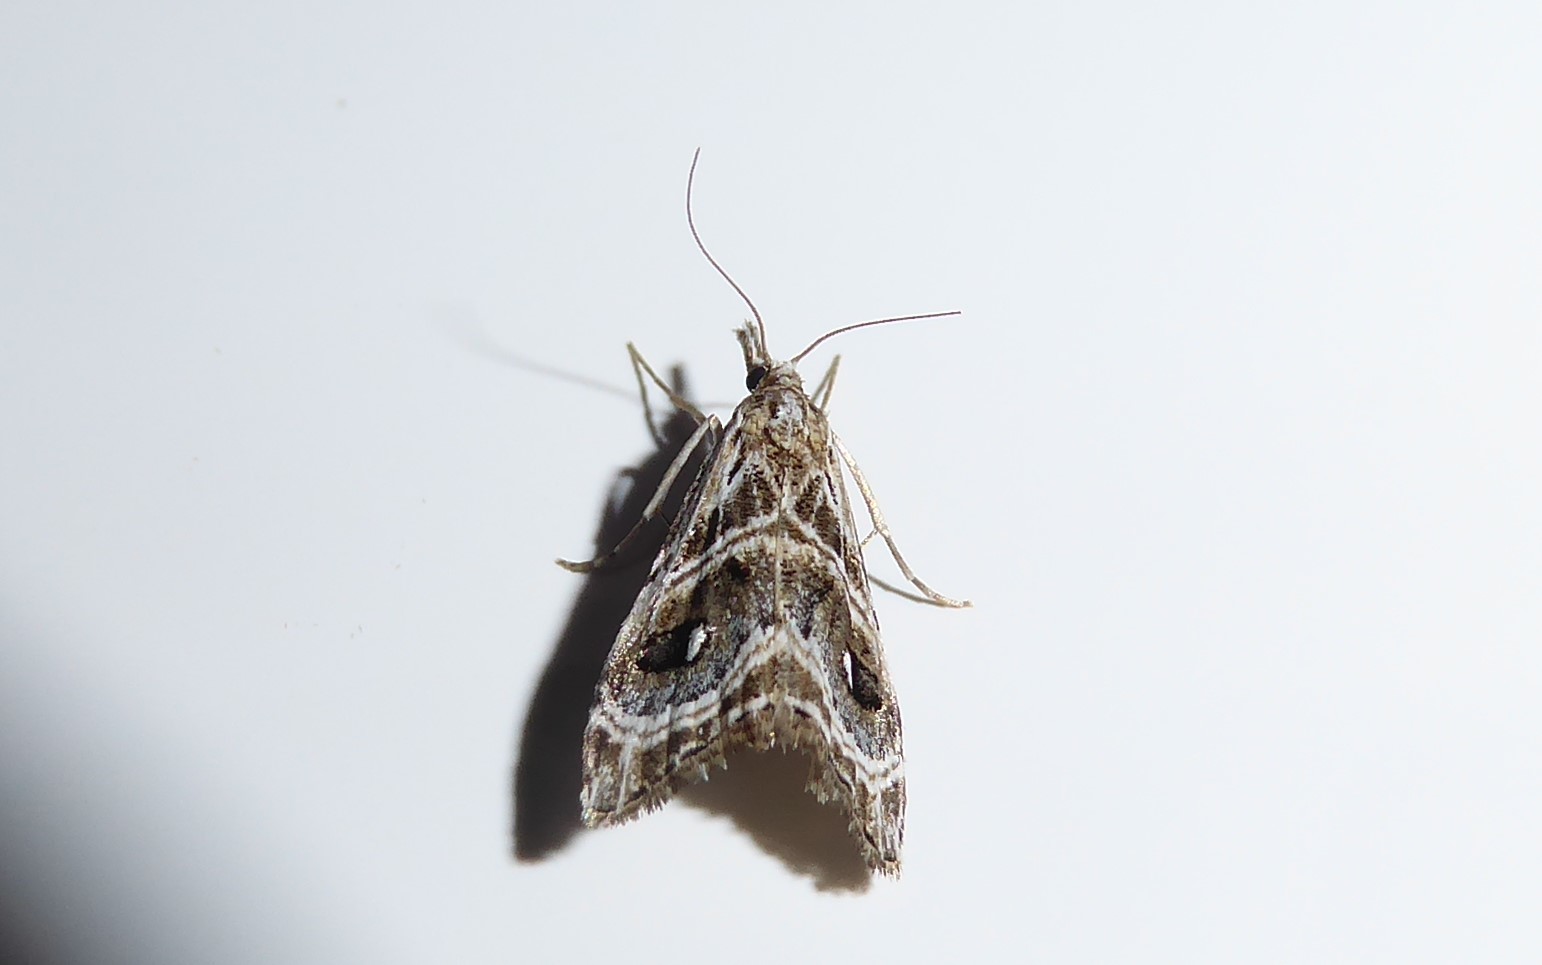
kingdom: Animalia
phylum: Arthropoda
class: Insecta
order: Lepidoptera
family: Crambidae
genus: Gadira
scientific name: Gadira acerella
